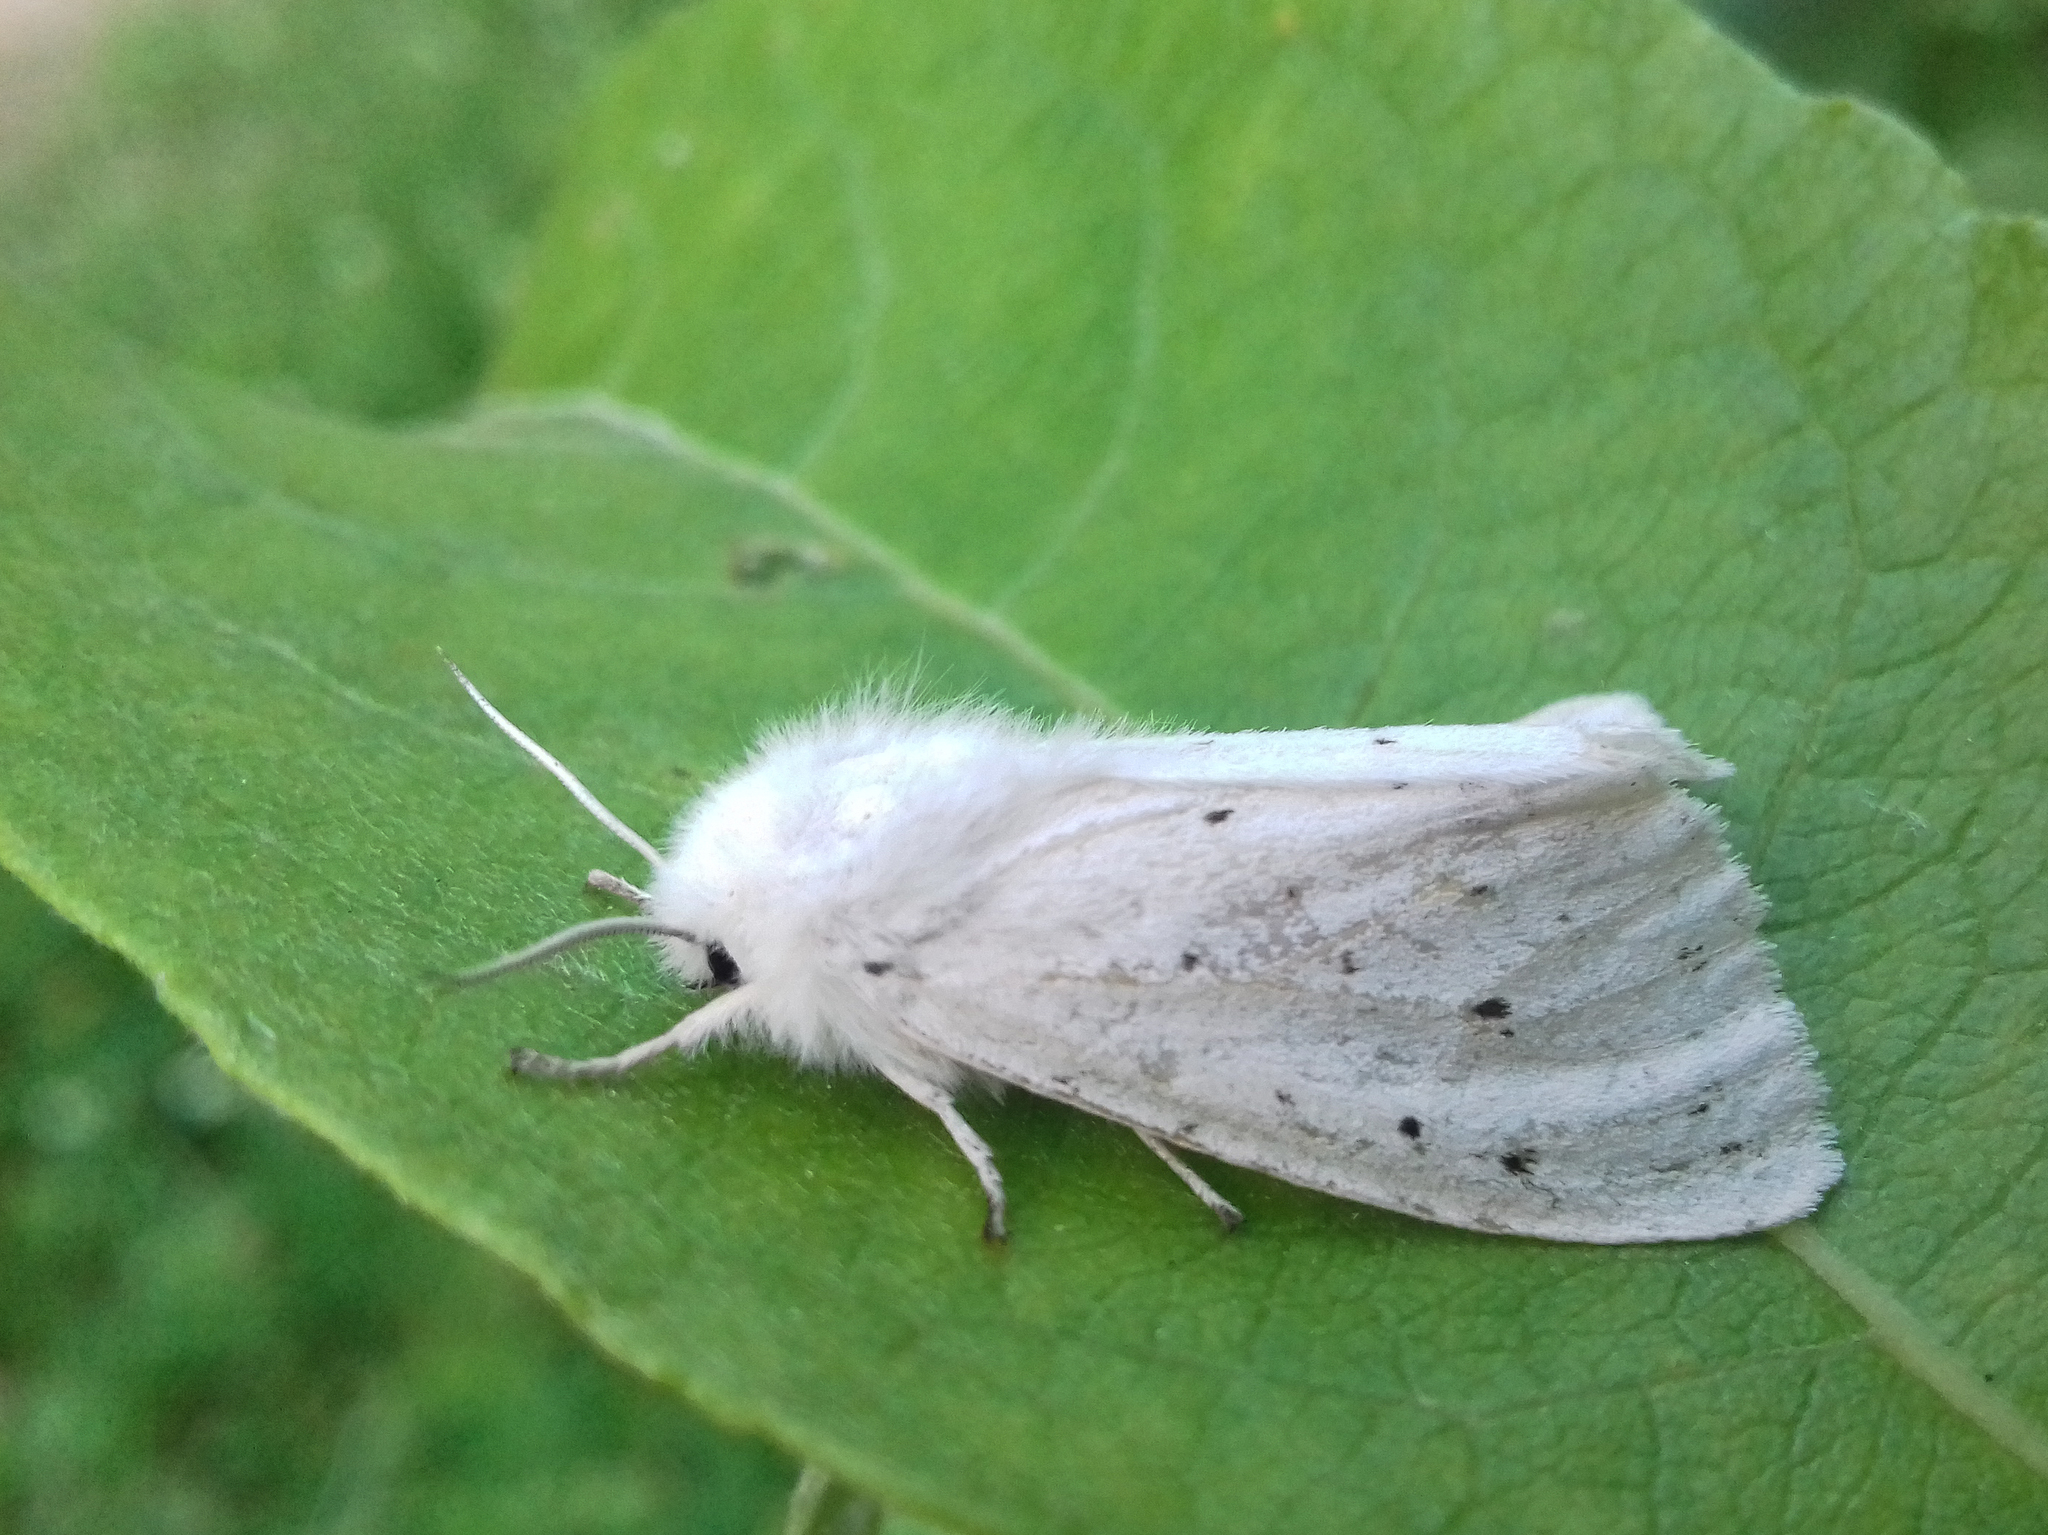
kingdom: Animalia
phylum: Arthropoda
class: Insecta
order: Lepidoptera
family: Erebidae
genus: Spilosoma
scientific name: Spilosoma lubricipeda
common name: White ermine
